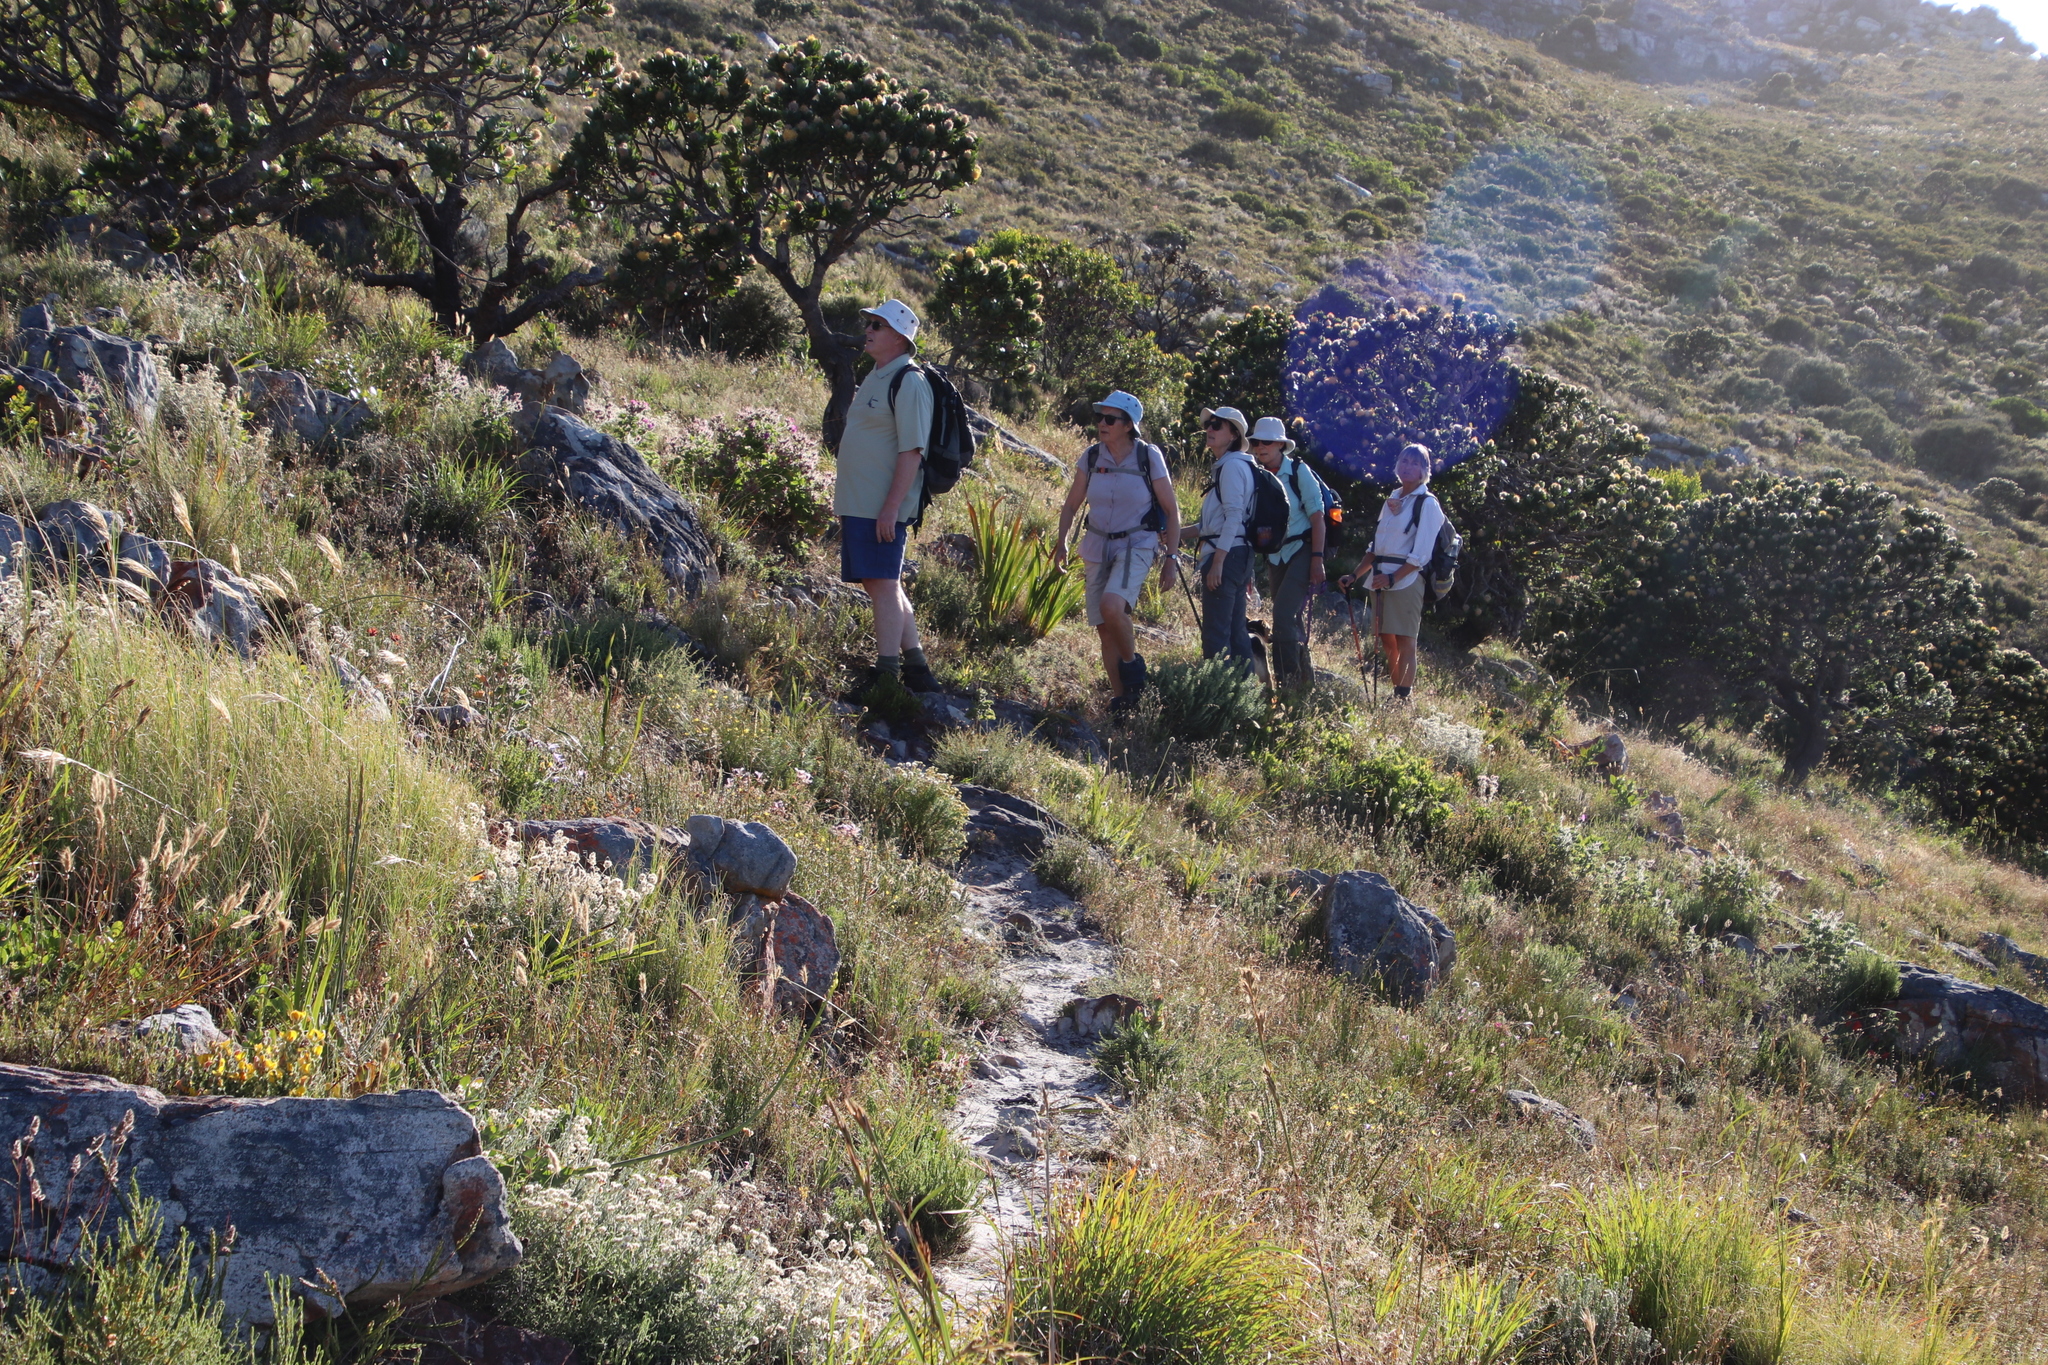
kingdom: Plantae
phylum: Tracheophyta
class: Magnoliopsida
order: Proteales
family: Proteaceae
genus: Leucospermum
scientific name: Leucospermum conocarpodendron
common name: Tree pincushion
